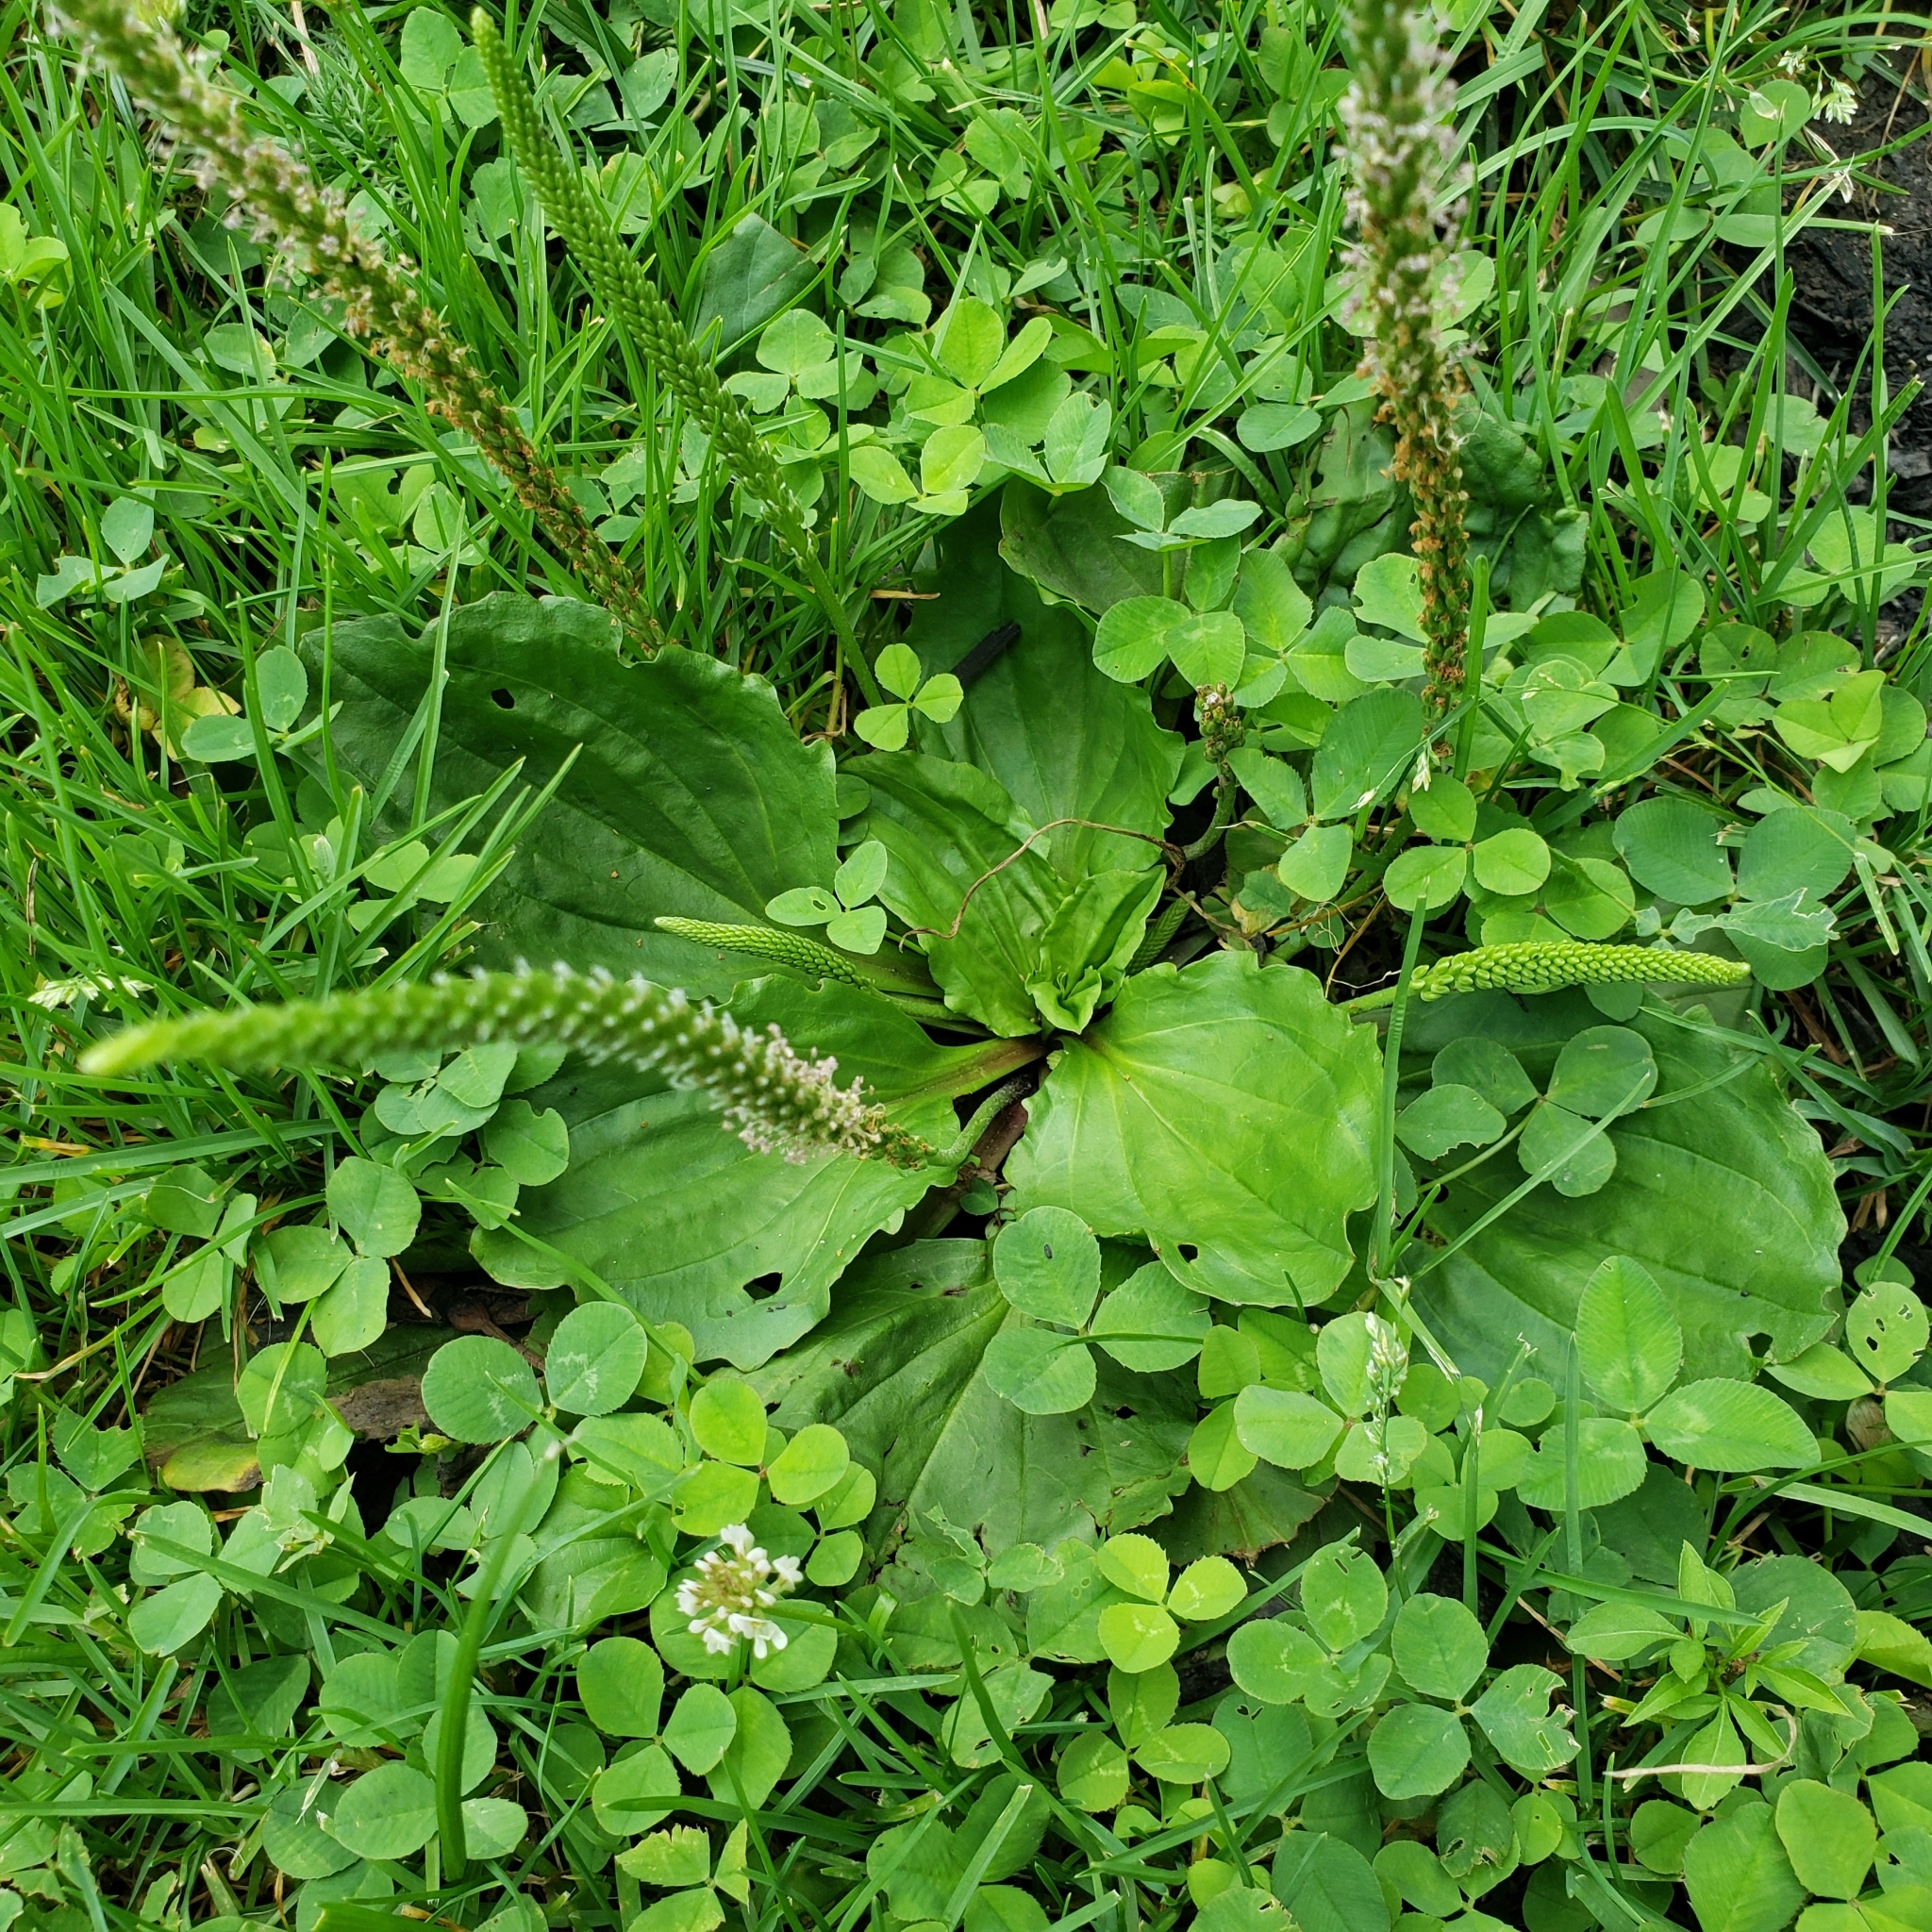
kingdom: Plantae
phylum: Tracheophyta
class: Magnoliopsida
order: Lamiales
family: Plantaginaceae
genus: Plantago
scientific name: Plantago rugelii
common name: American plantain
